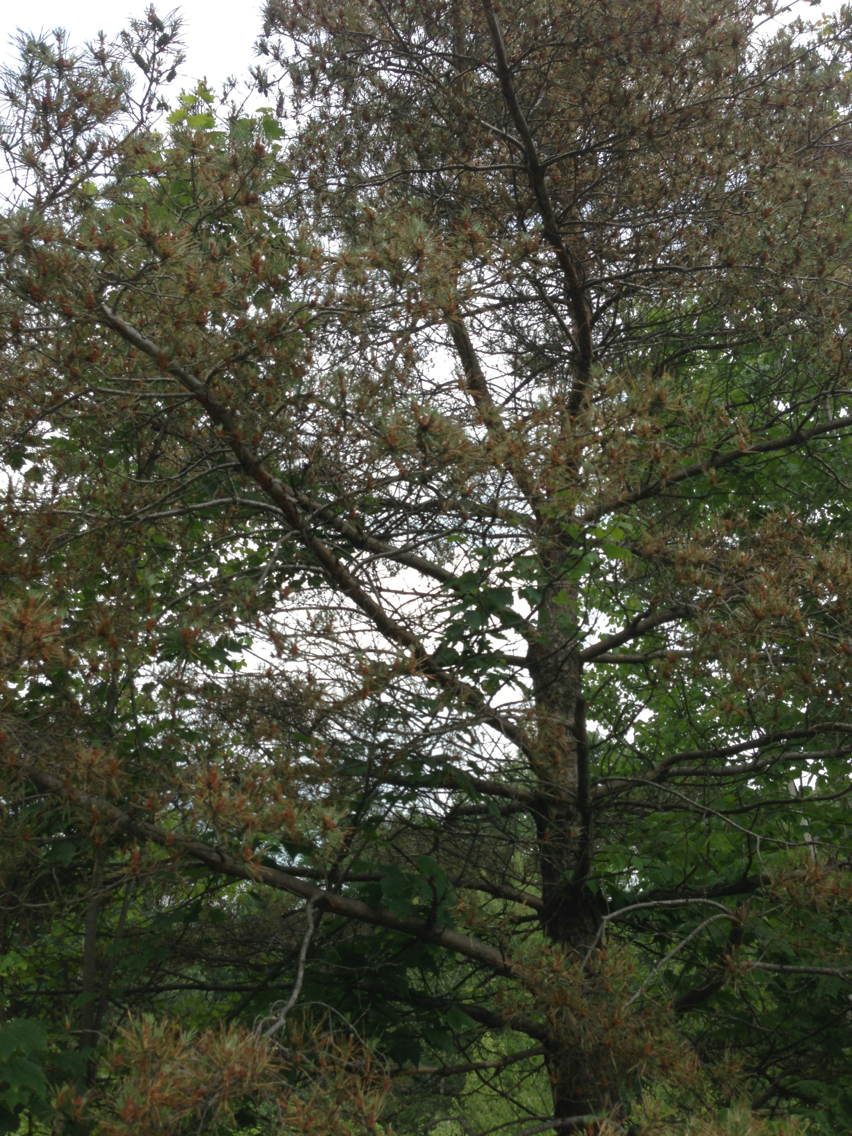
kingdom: Plantae
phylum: Tracheophyta
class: Pinopsida
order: Pinales
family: Pinaceae
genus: Pinus
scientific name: Pinus sylvestris
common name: Scots pine
